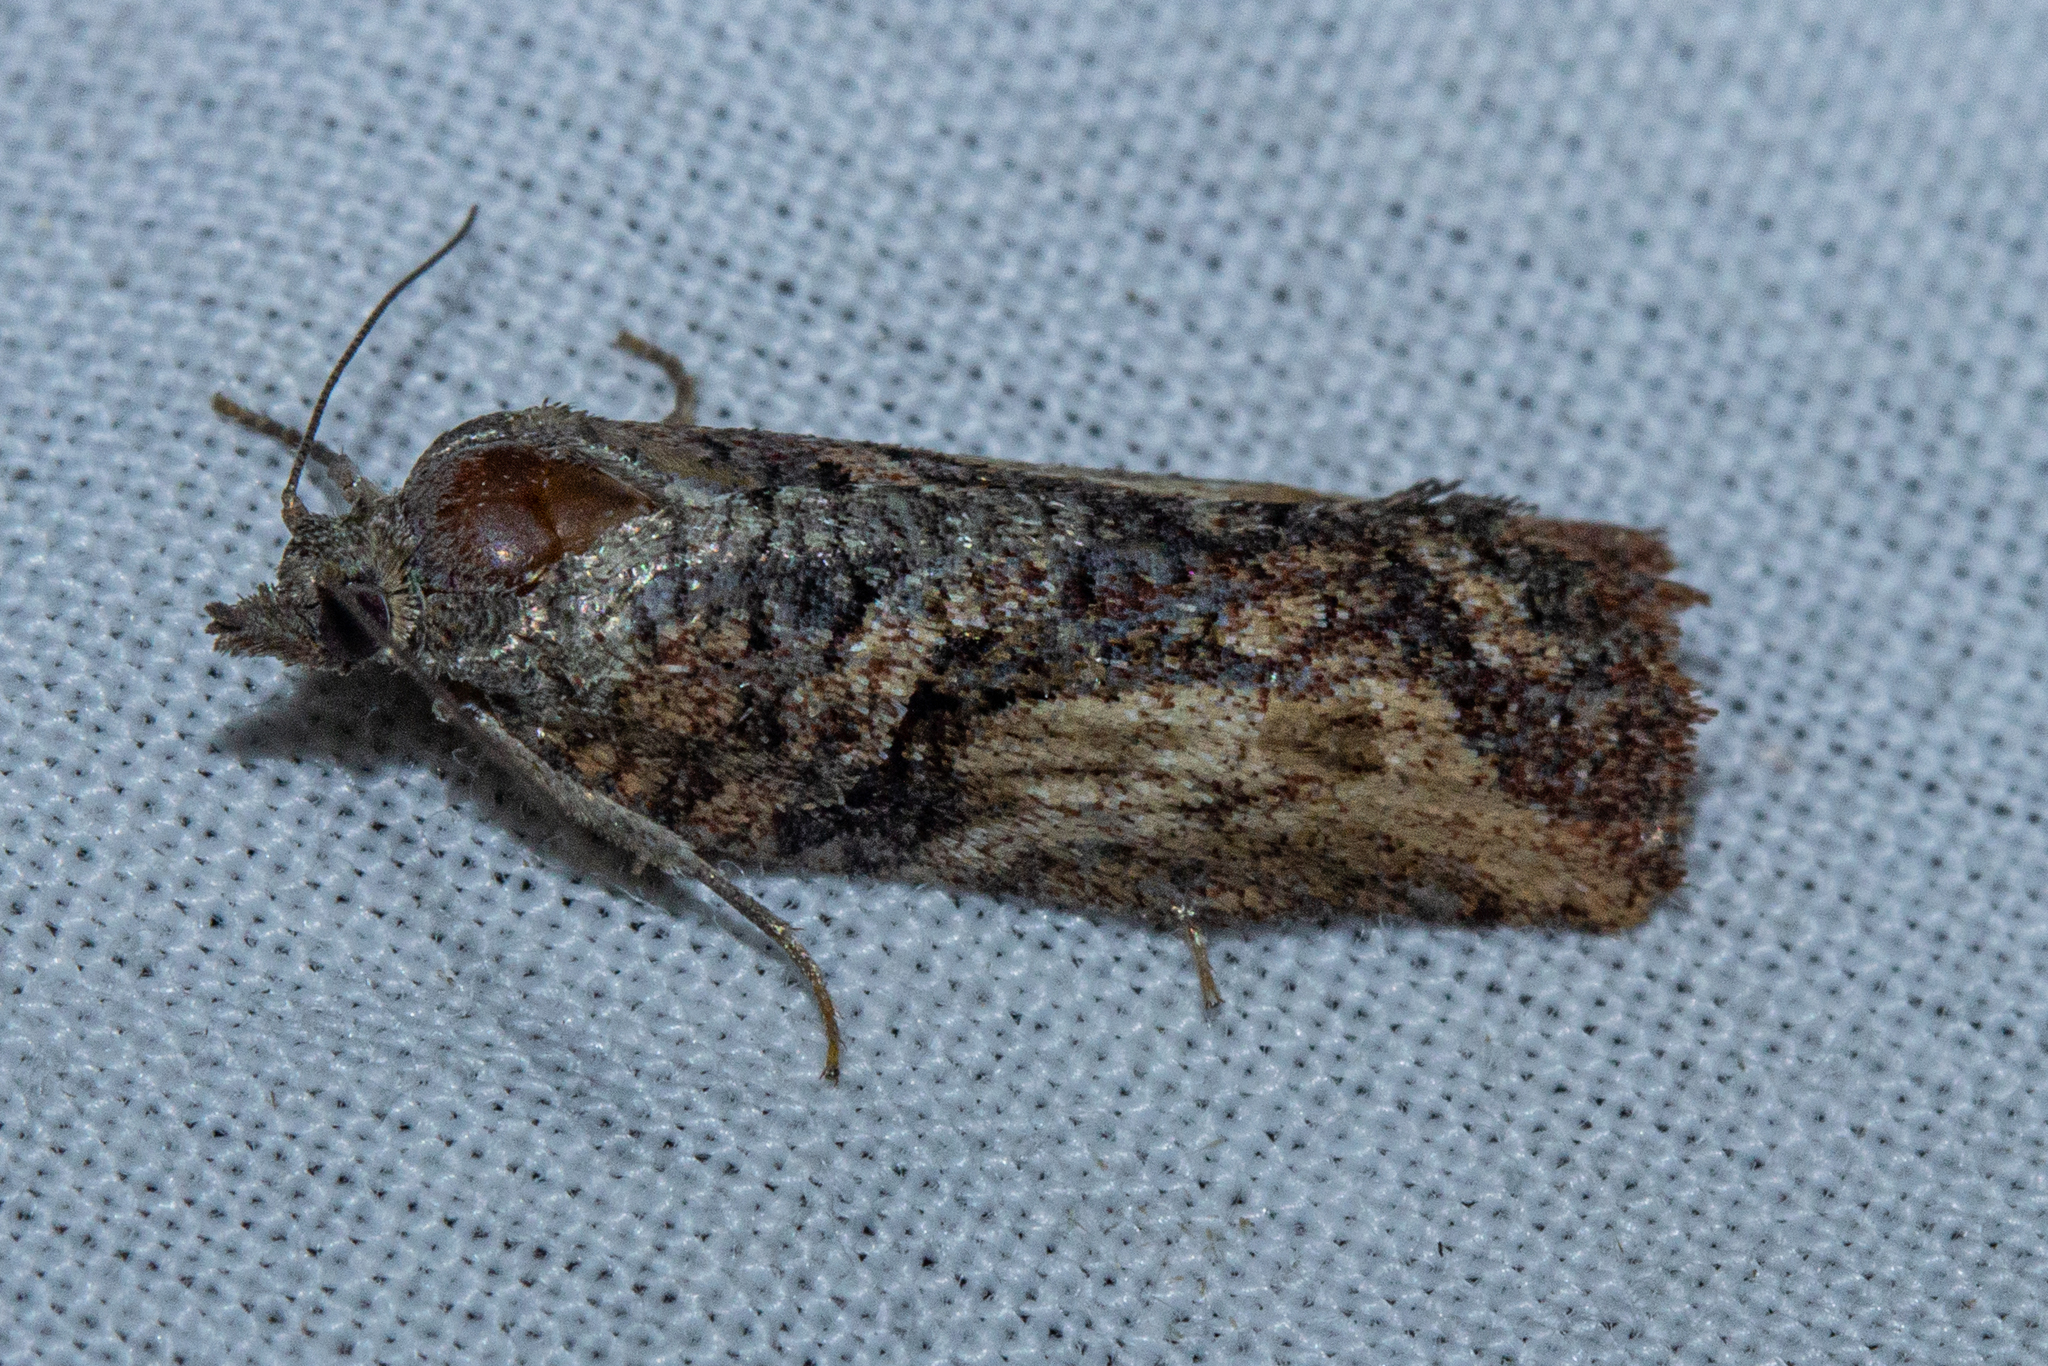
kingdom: Animalia
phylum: Arthropoda
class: Insecta
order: Lepidoptera
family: Tortricidae
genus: Harmologa
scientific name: Harmologa scoliastis
